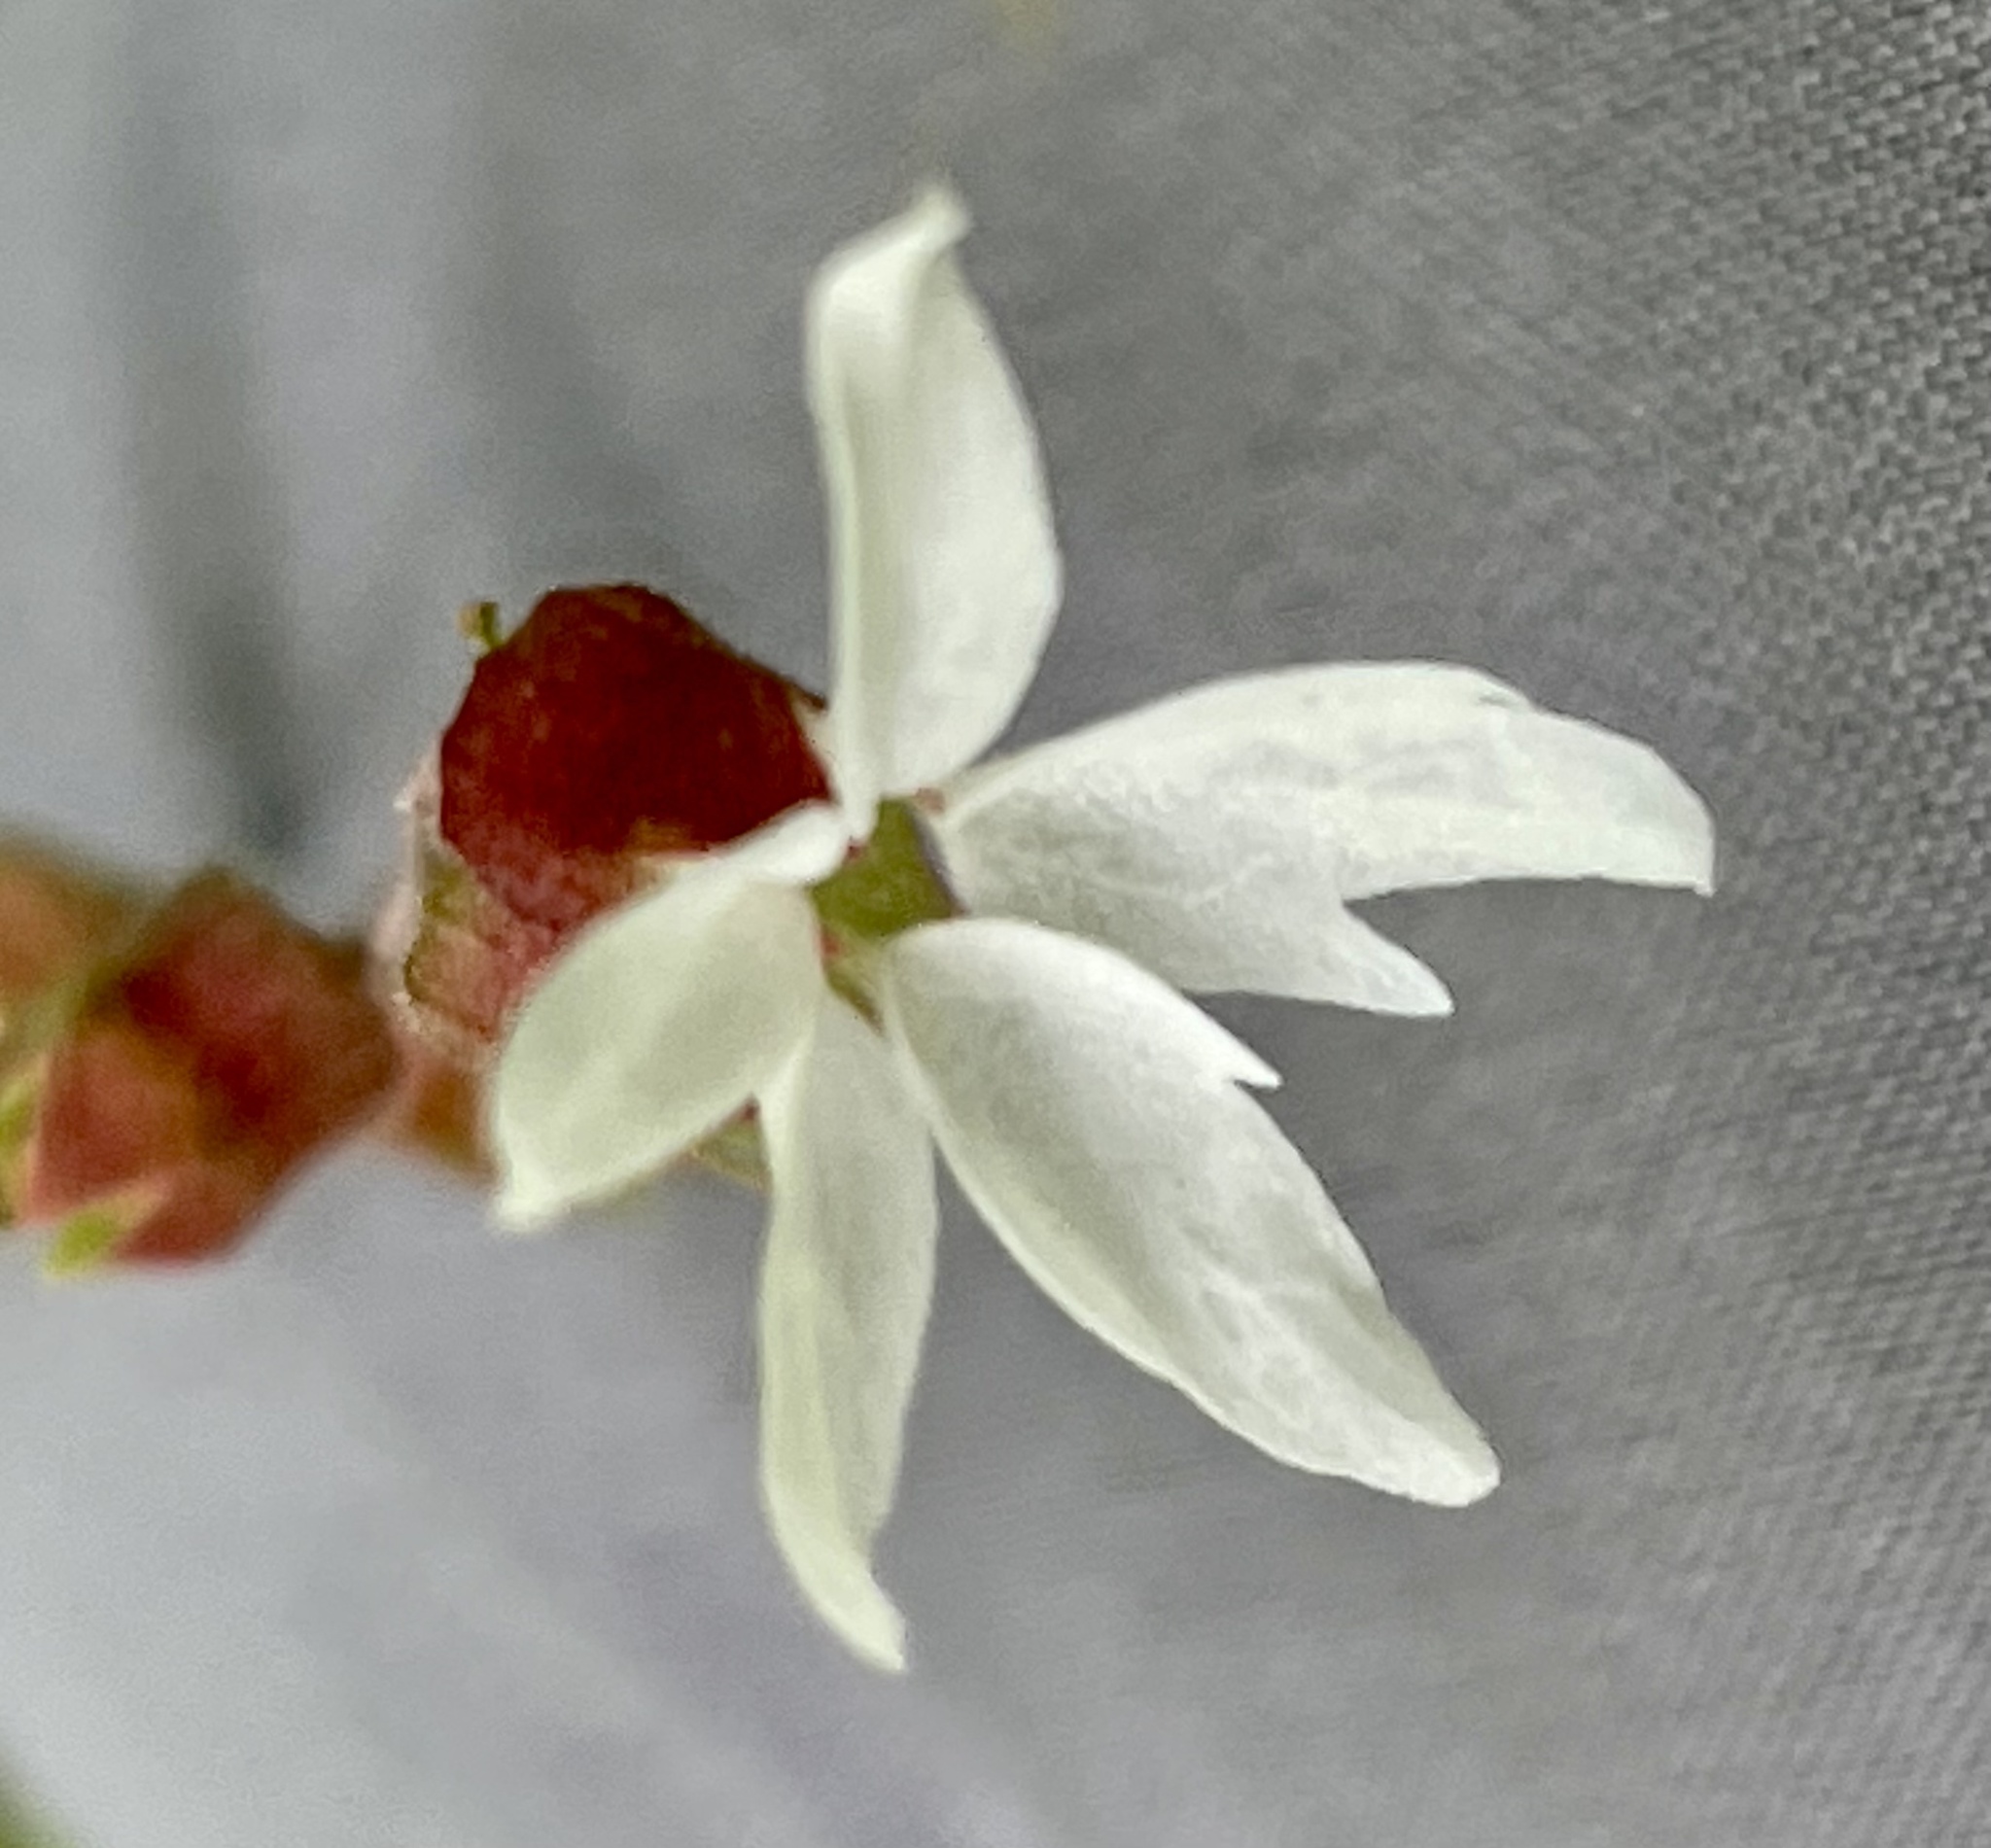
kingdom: Plantae
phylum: Tracheophyta
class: Magnoliopsida
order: Saxifragales
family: Saxifragaceae
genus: Lithophragma
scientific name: Lithophragma heterophyllum
